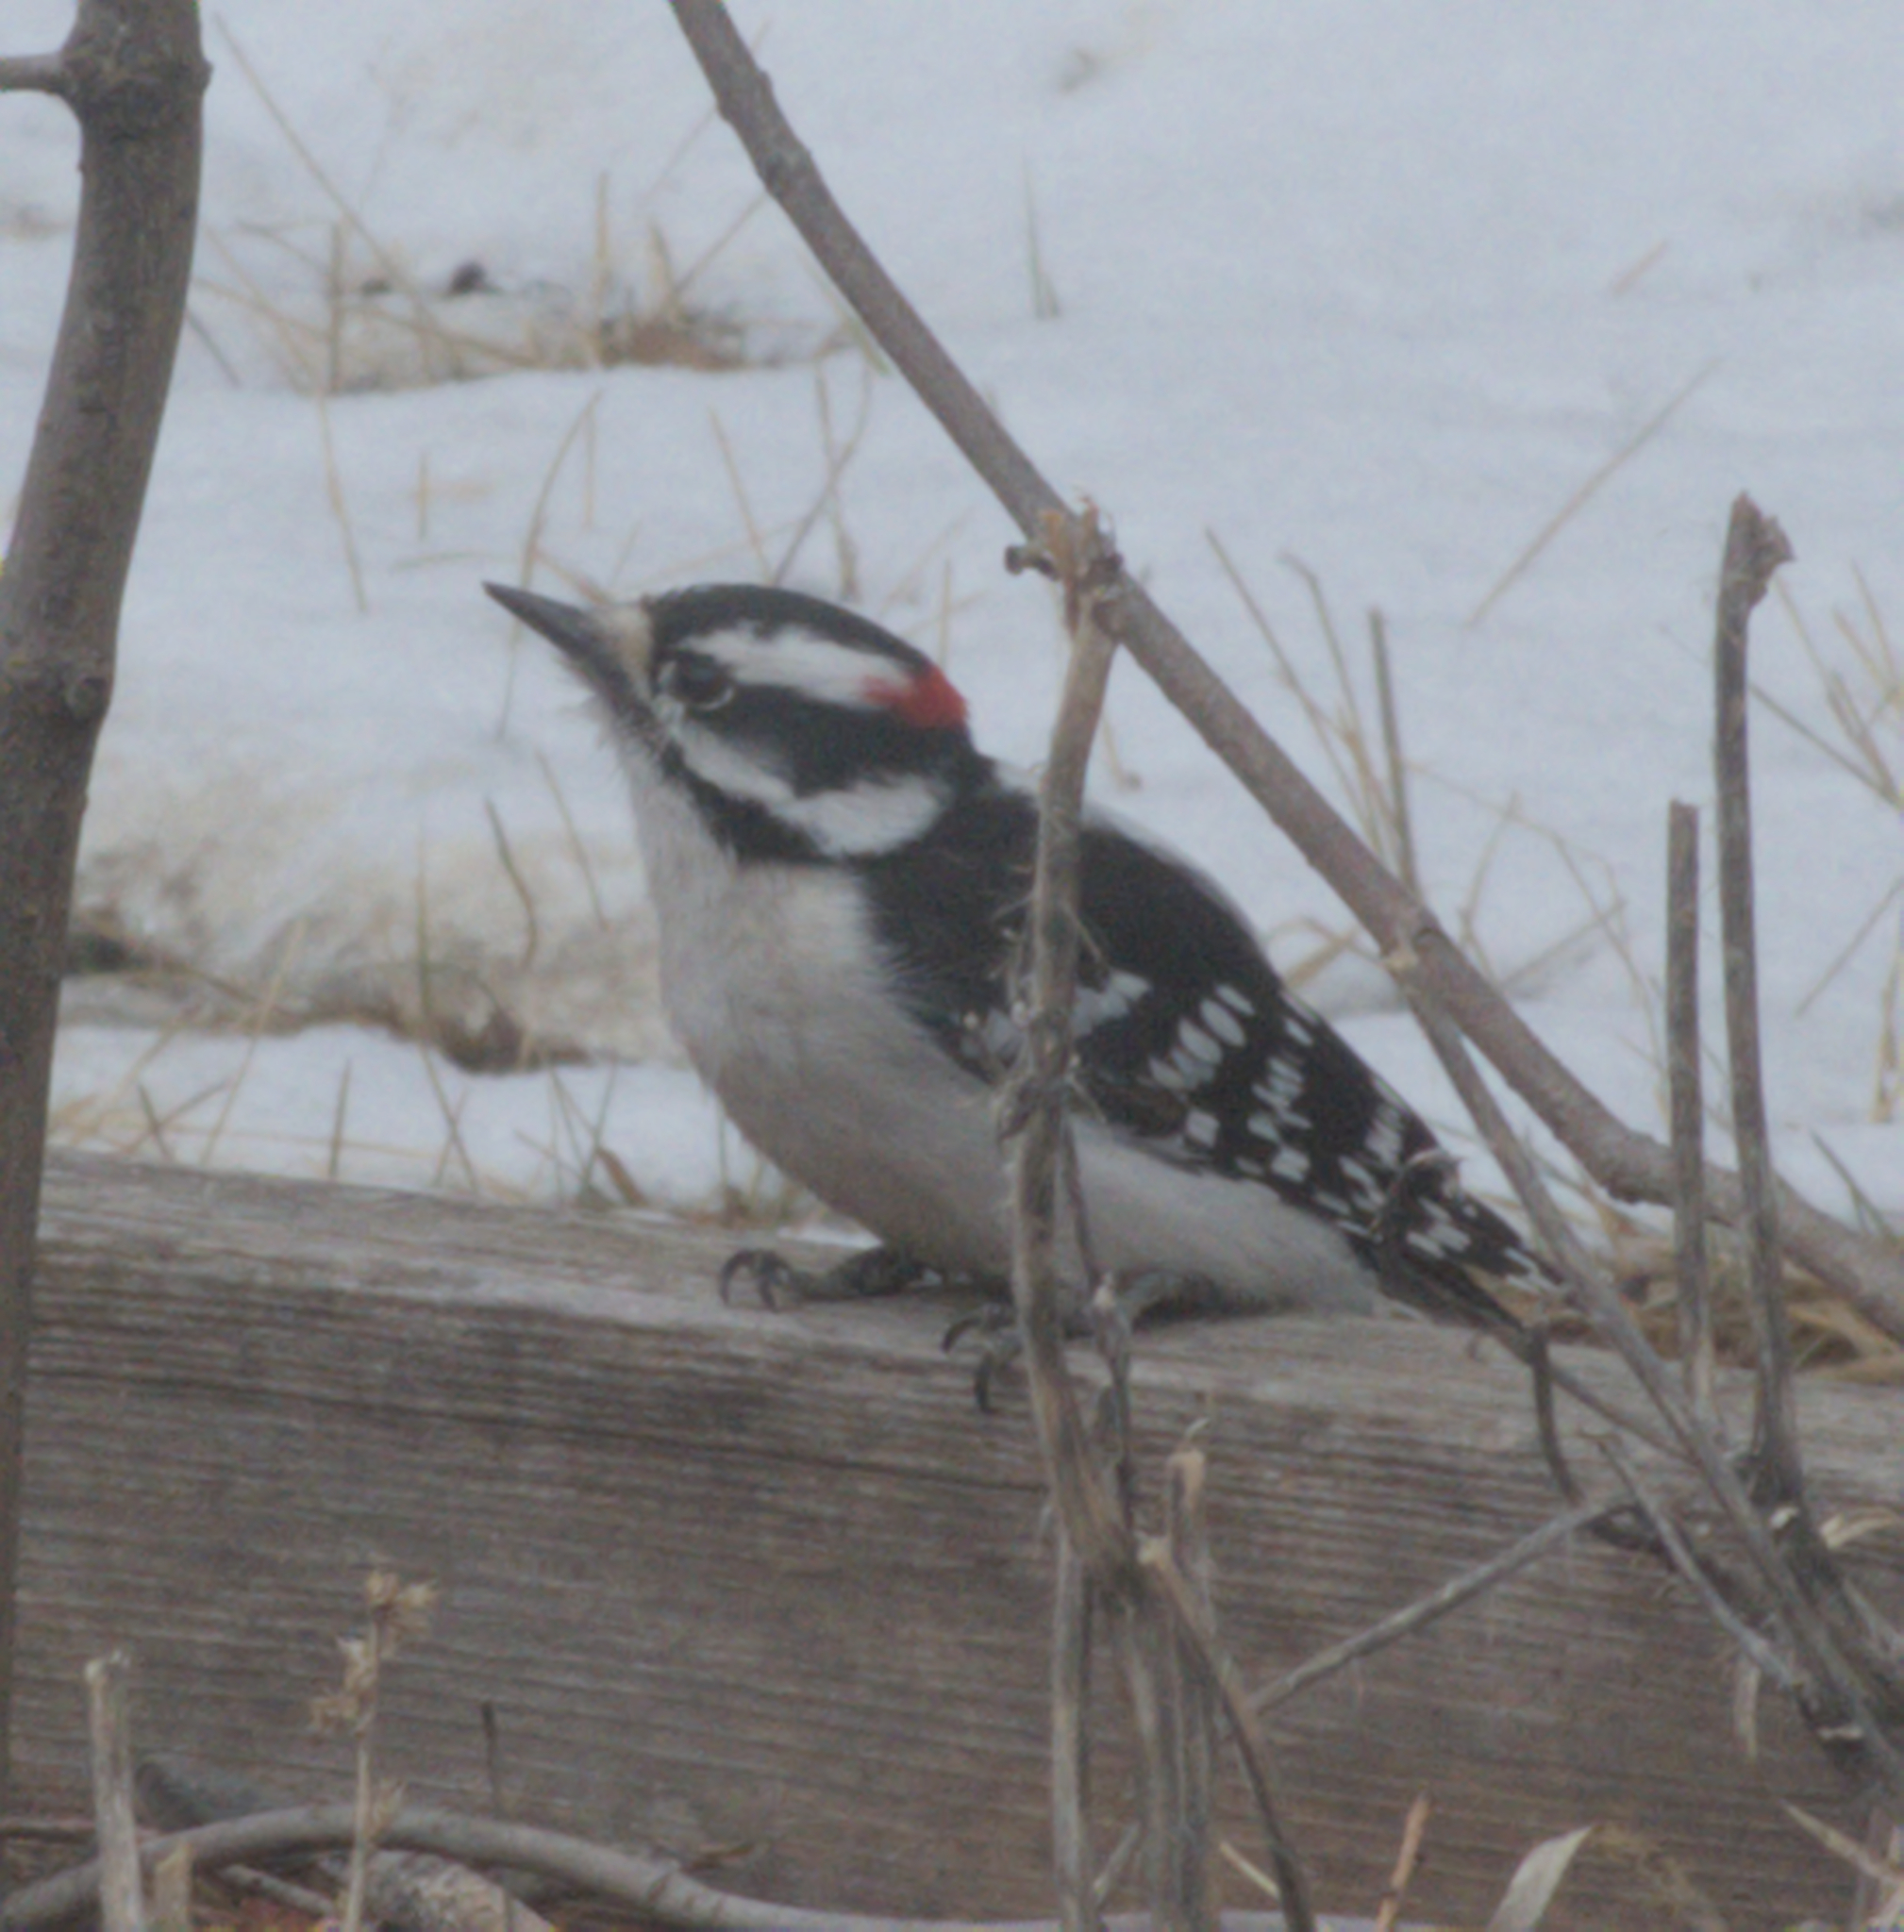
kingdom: Animalia
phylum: Chordata
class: Aves
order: Piciformes
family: Picidae
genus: Dryobates
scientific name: Dryobates pubescens
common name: Downy woodpecker
